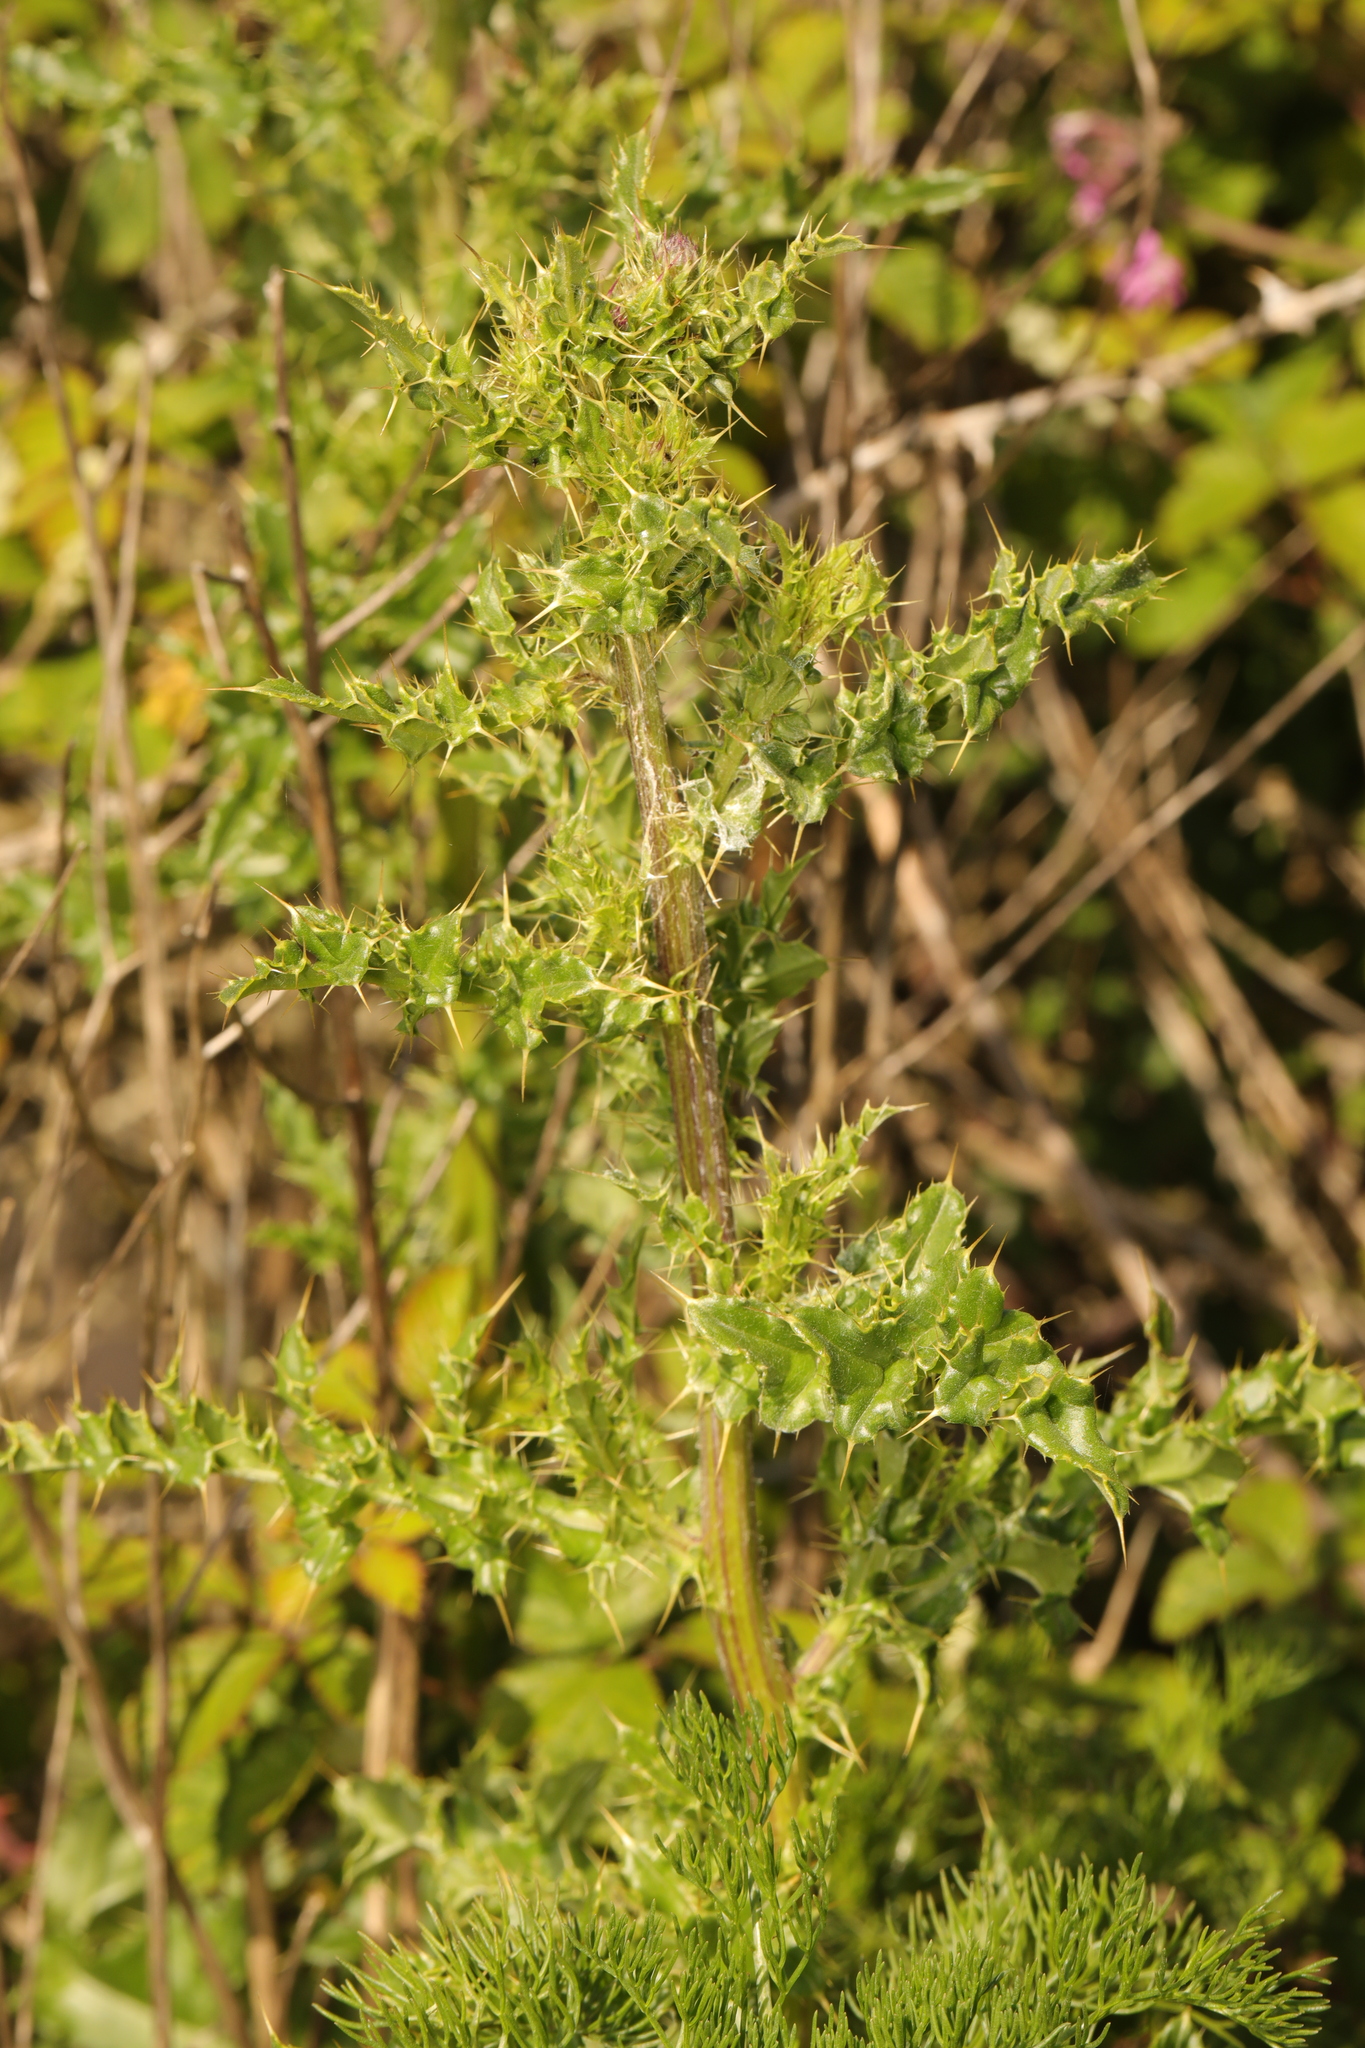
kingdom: Plantae
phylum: Tracheophyta
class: Magnoliopsida
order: Asterales
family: Asteraceae
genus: Cirsium
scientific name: Cirsium arvense
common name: Creeping thistle
